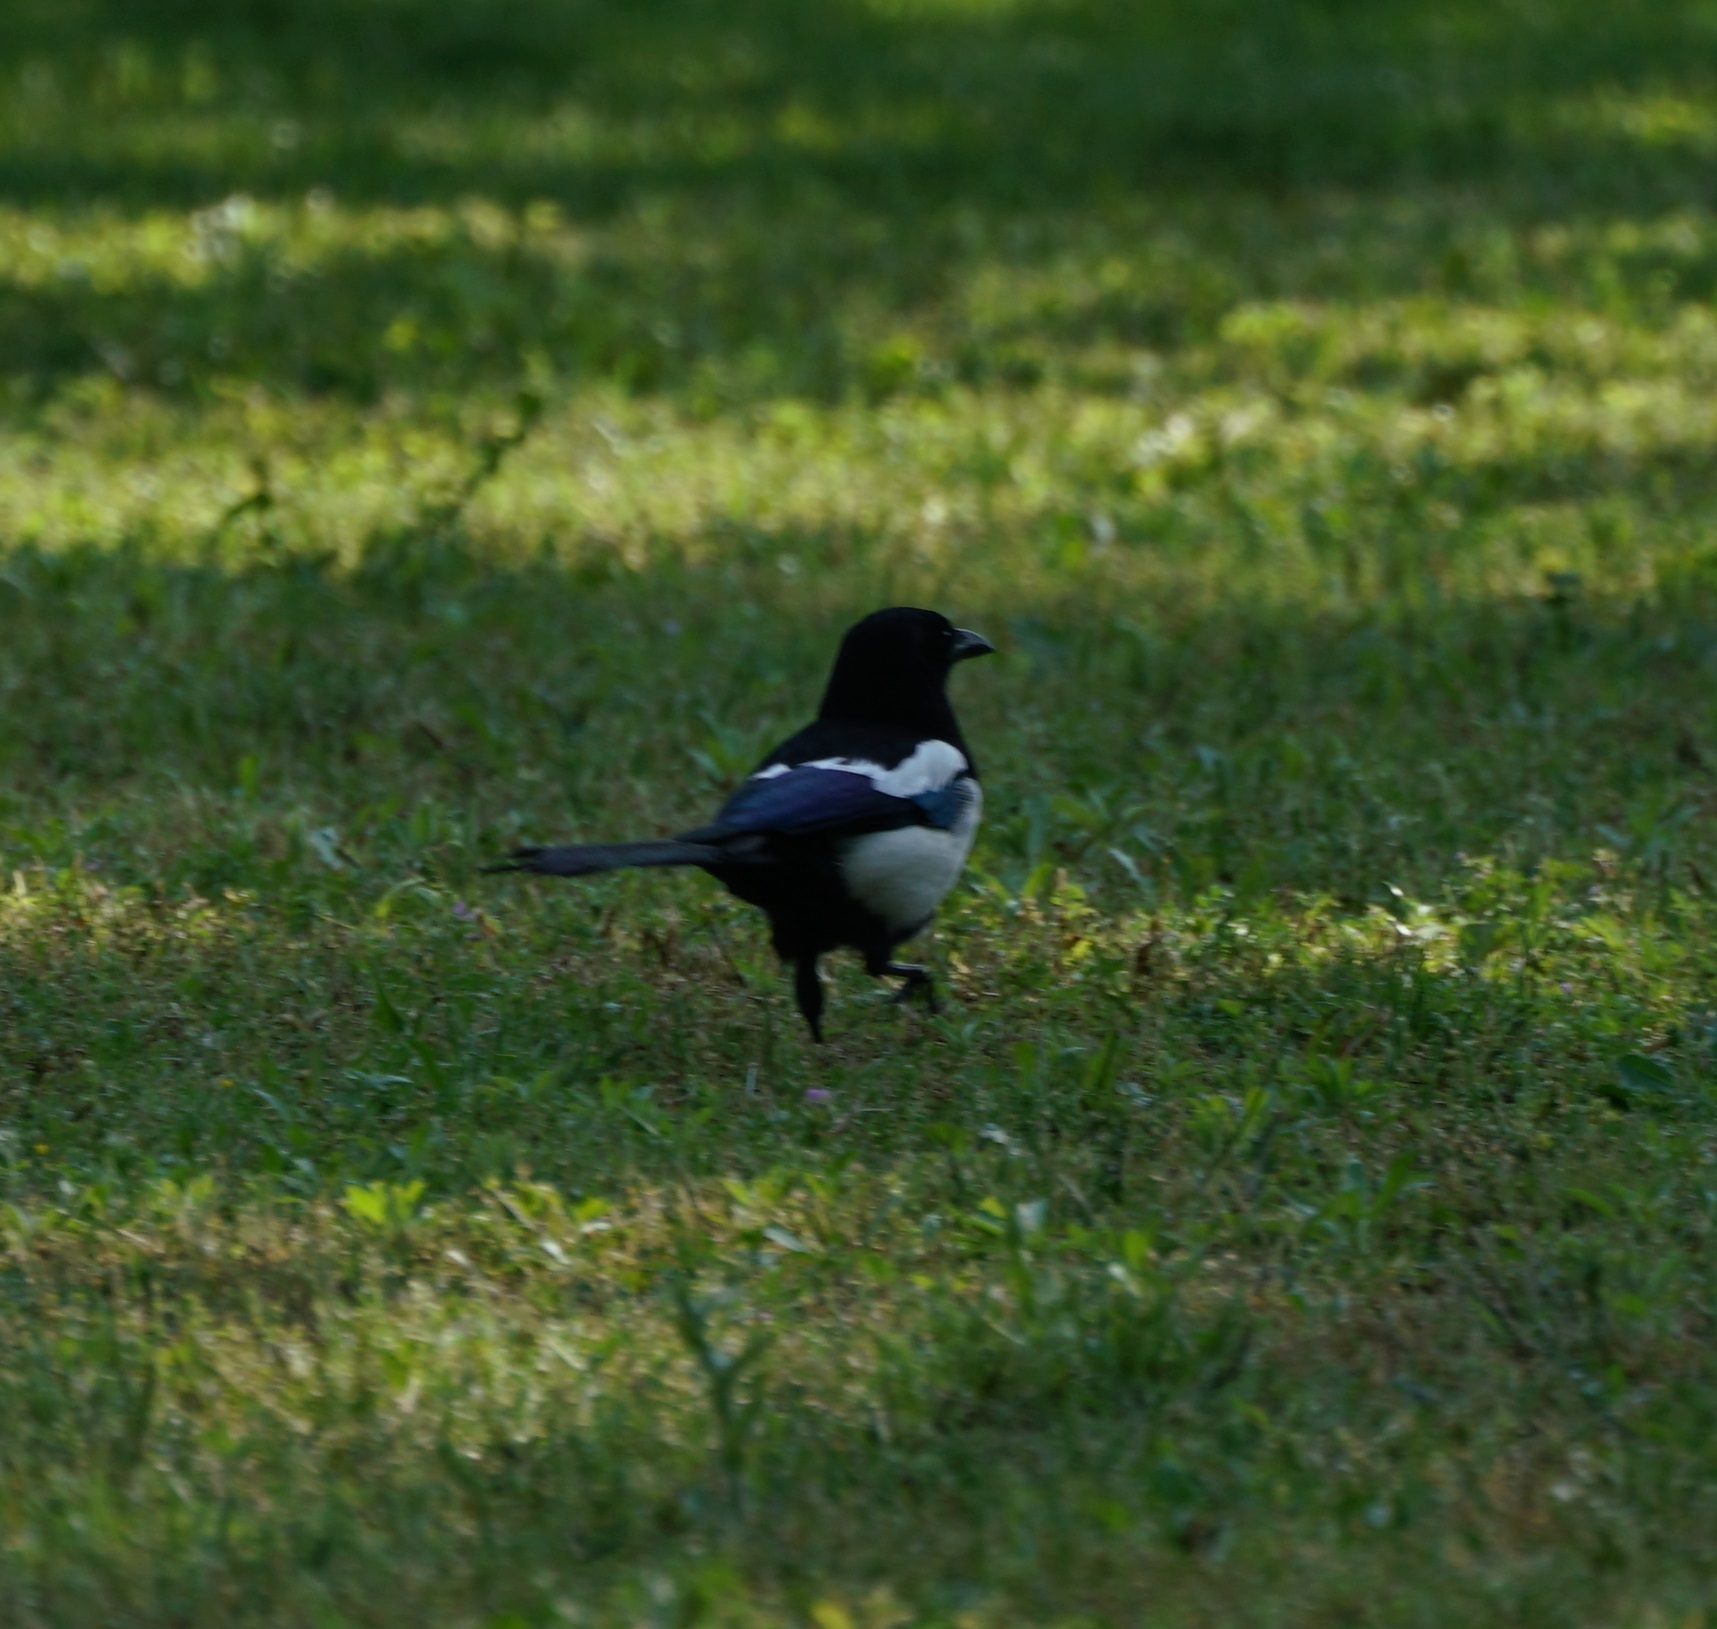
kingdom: Animalia
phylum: Chordata
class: Aves
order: Passeriformes
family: Corvidae
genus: Pica
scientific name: Pica pica
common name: Eurasian magpie
